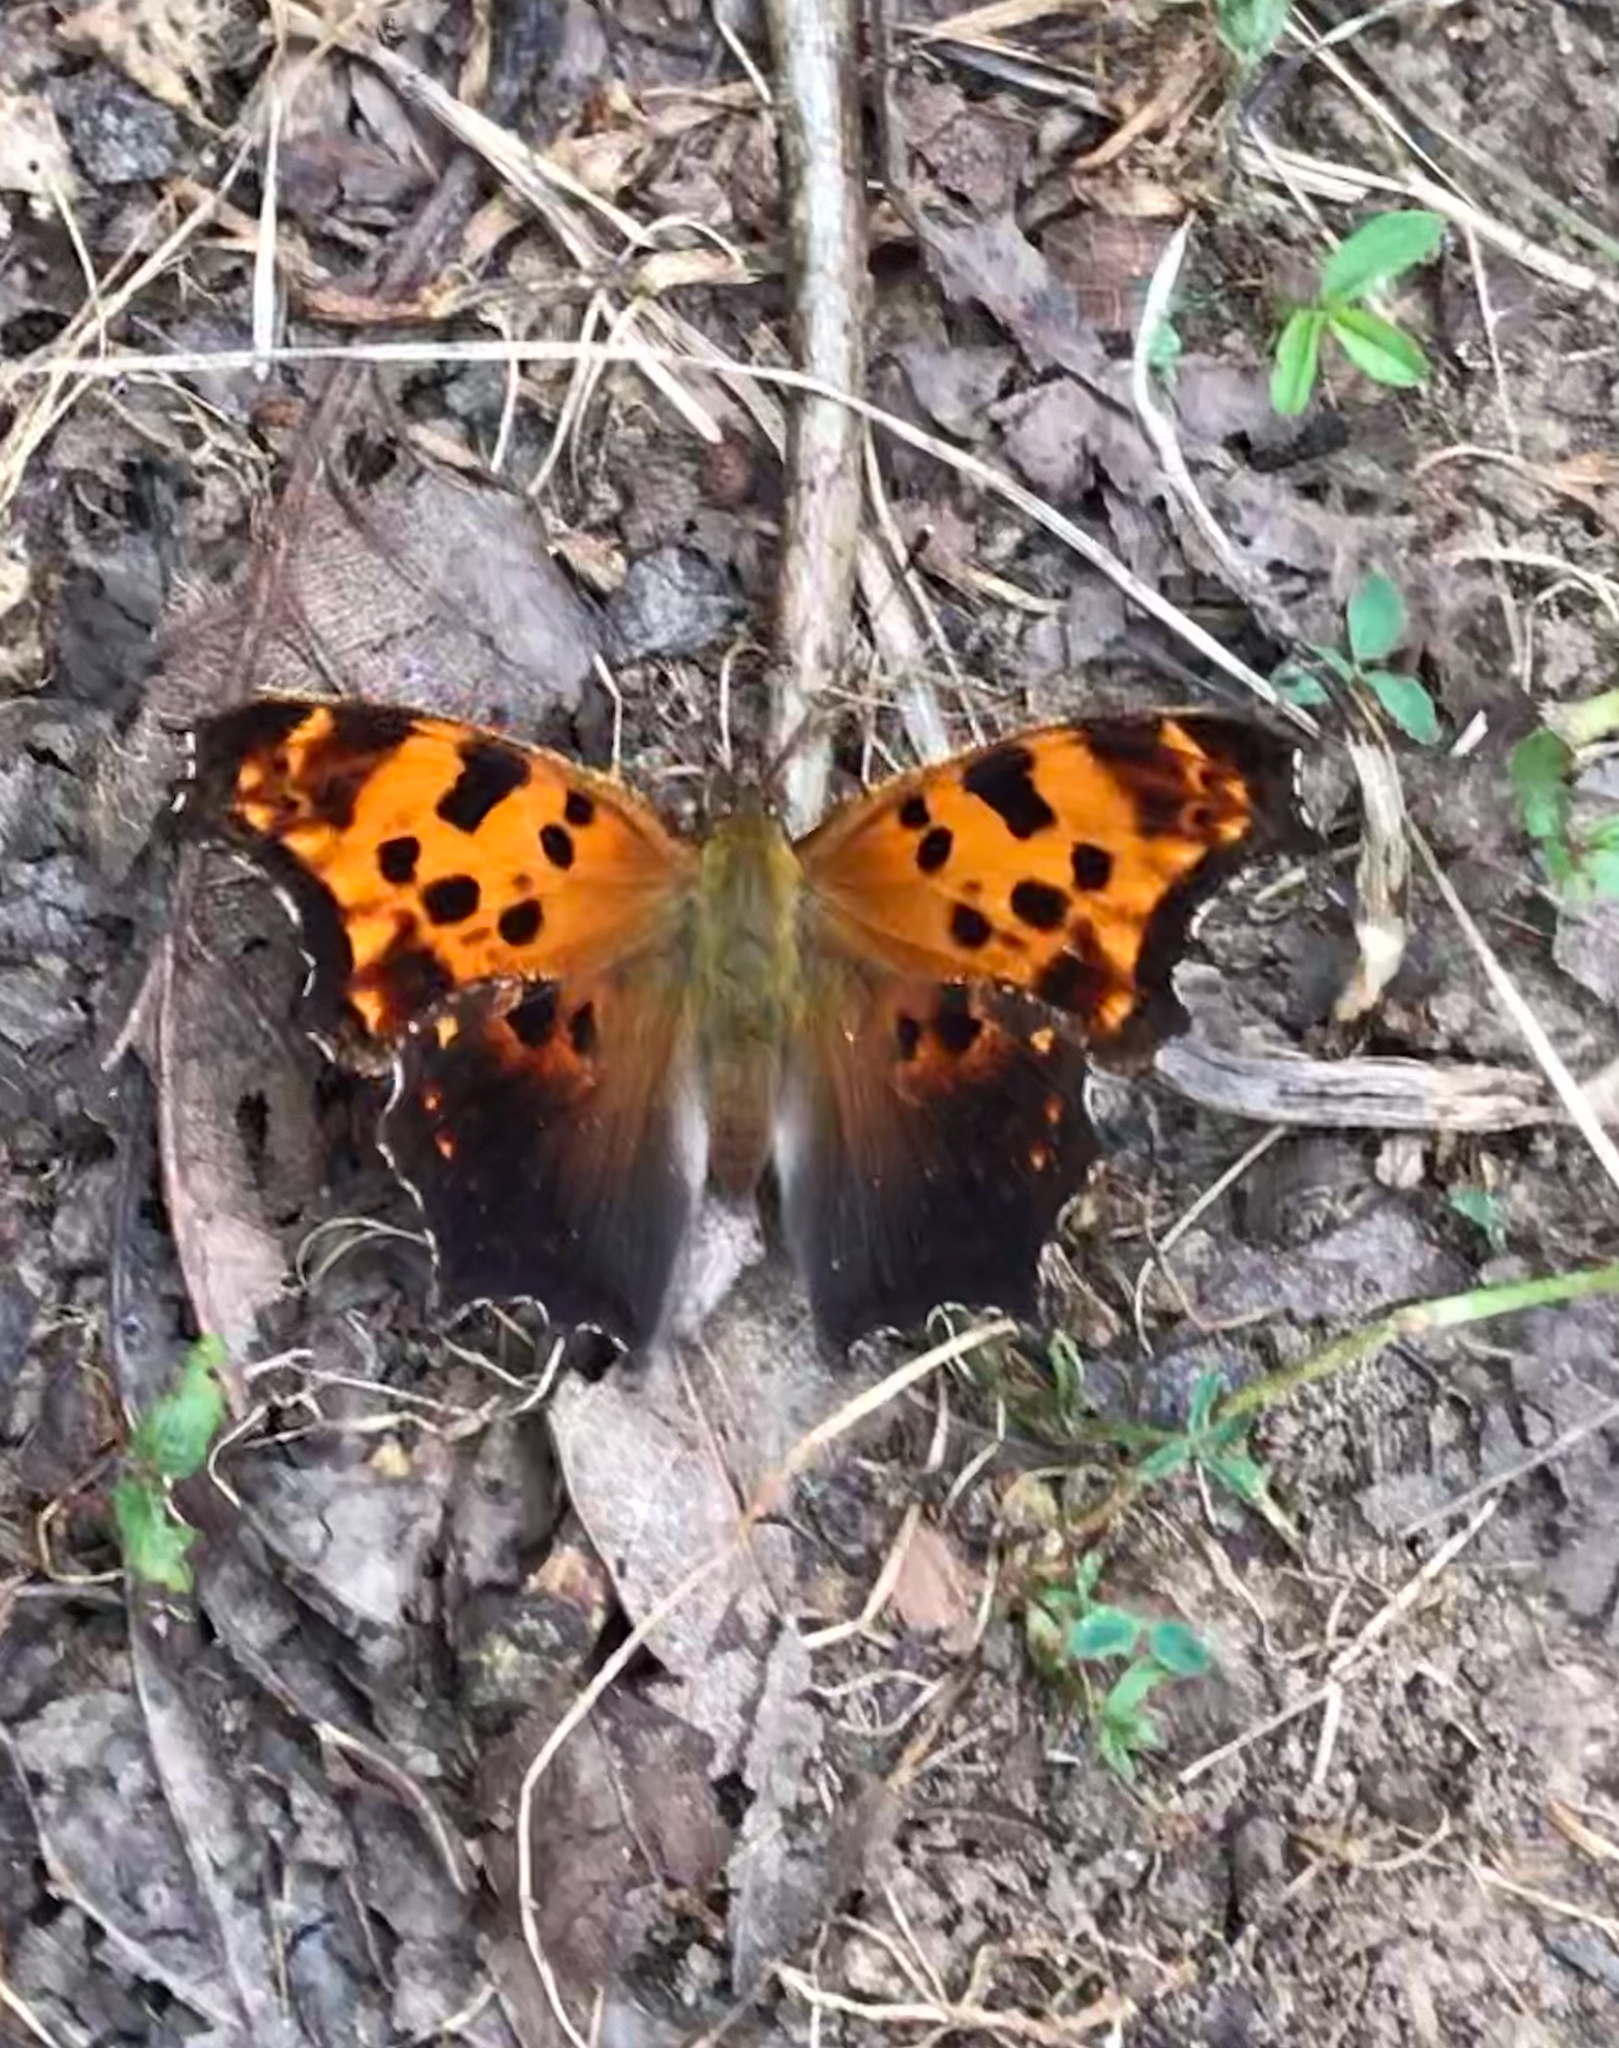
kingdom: Animalia
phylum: Arthropoda
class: Insecta
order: Lepidoptera
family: Nymphalidae
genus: Polygonia
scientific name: Polygonia comma
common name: Eastern comma
